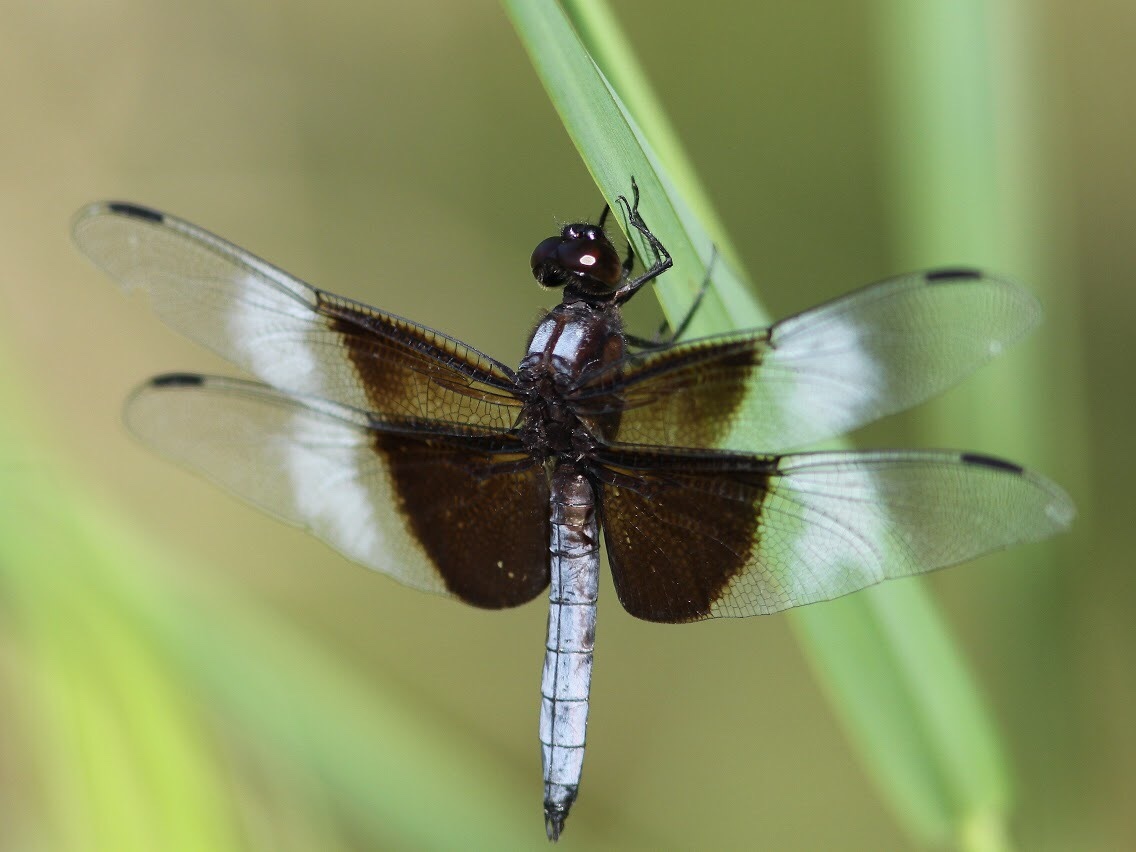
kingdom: Animalia
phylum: Arthropoda
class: Insecta
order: Odonata
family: Libellulidae
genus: Libellula
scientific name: Libellula luctuosa
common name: Widow skimmer
